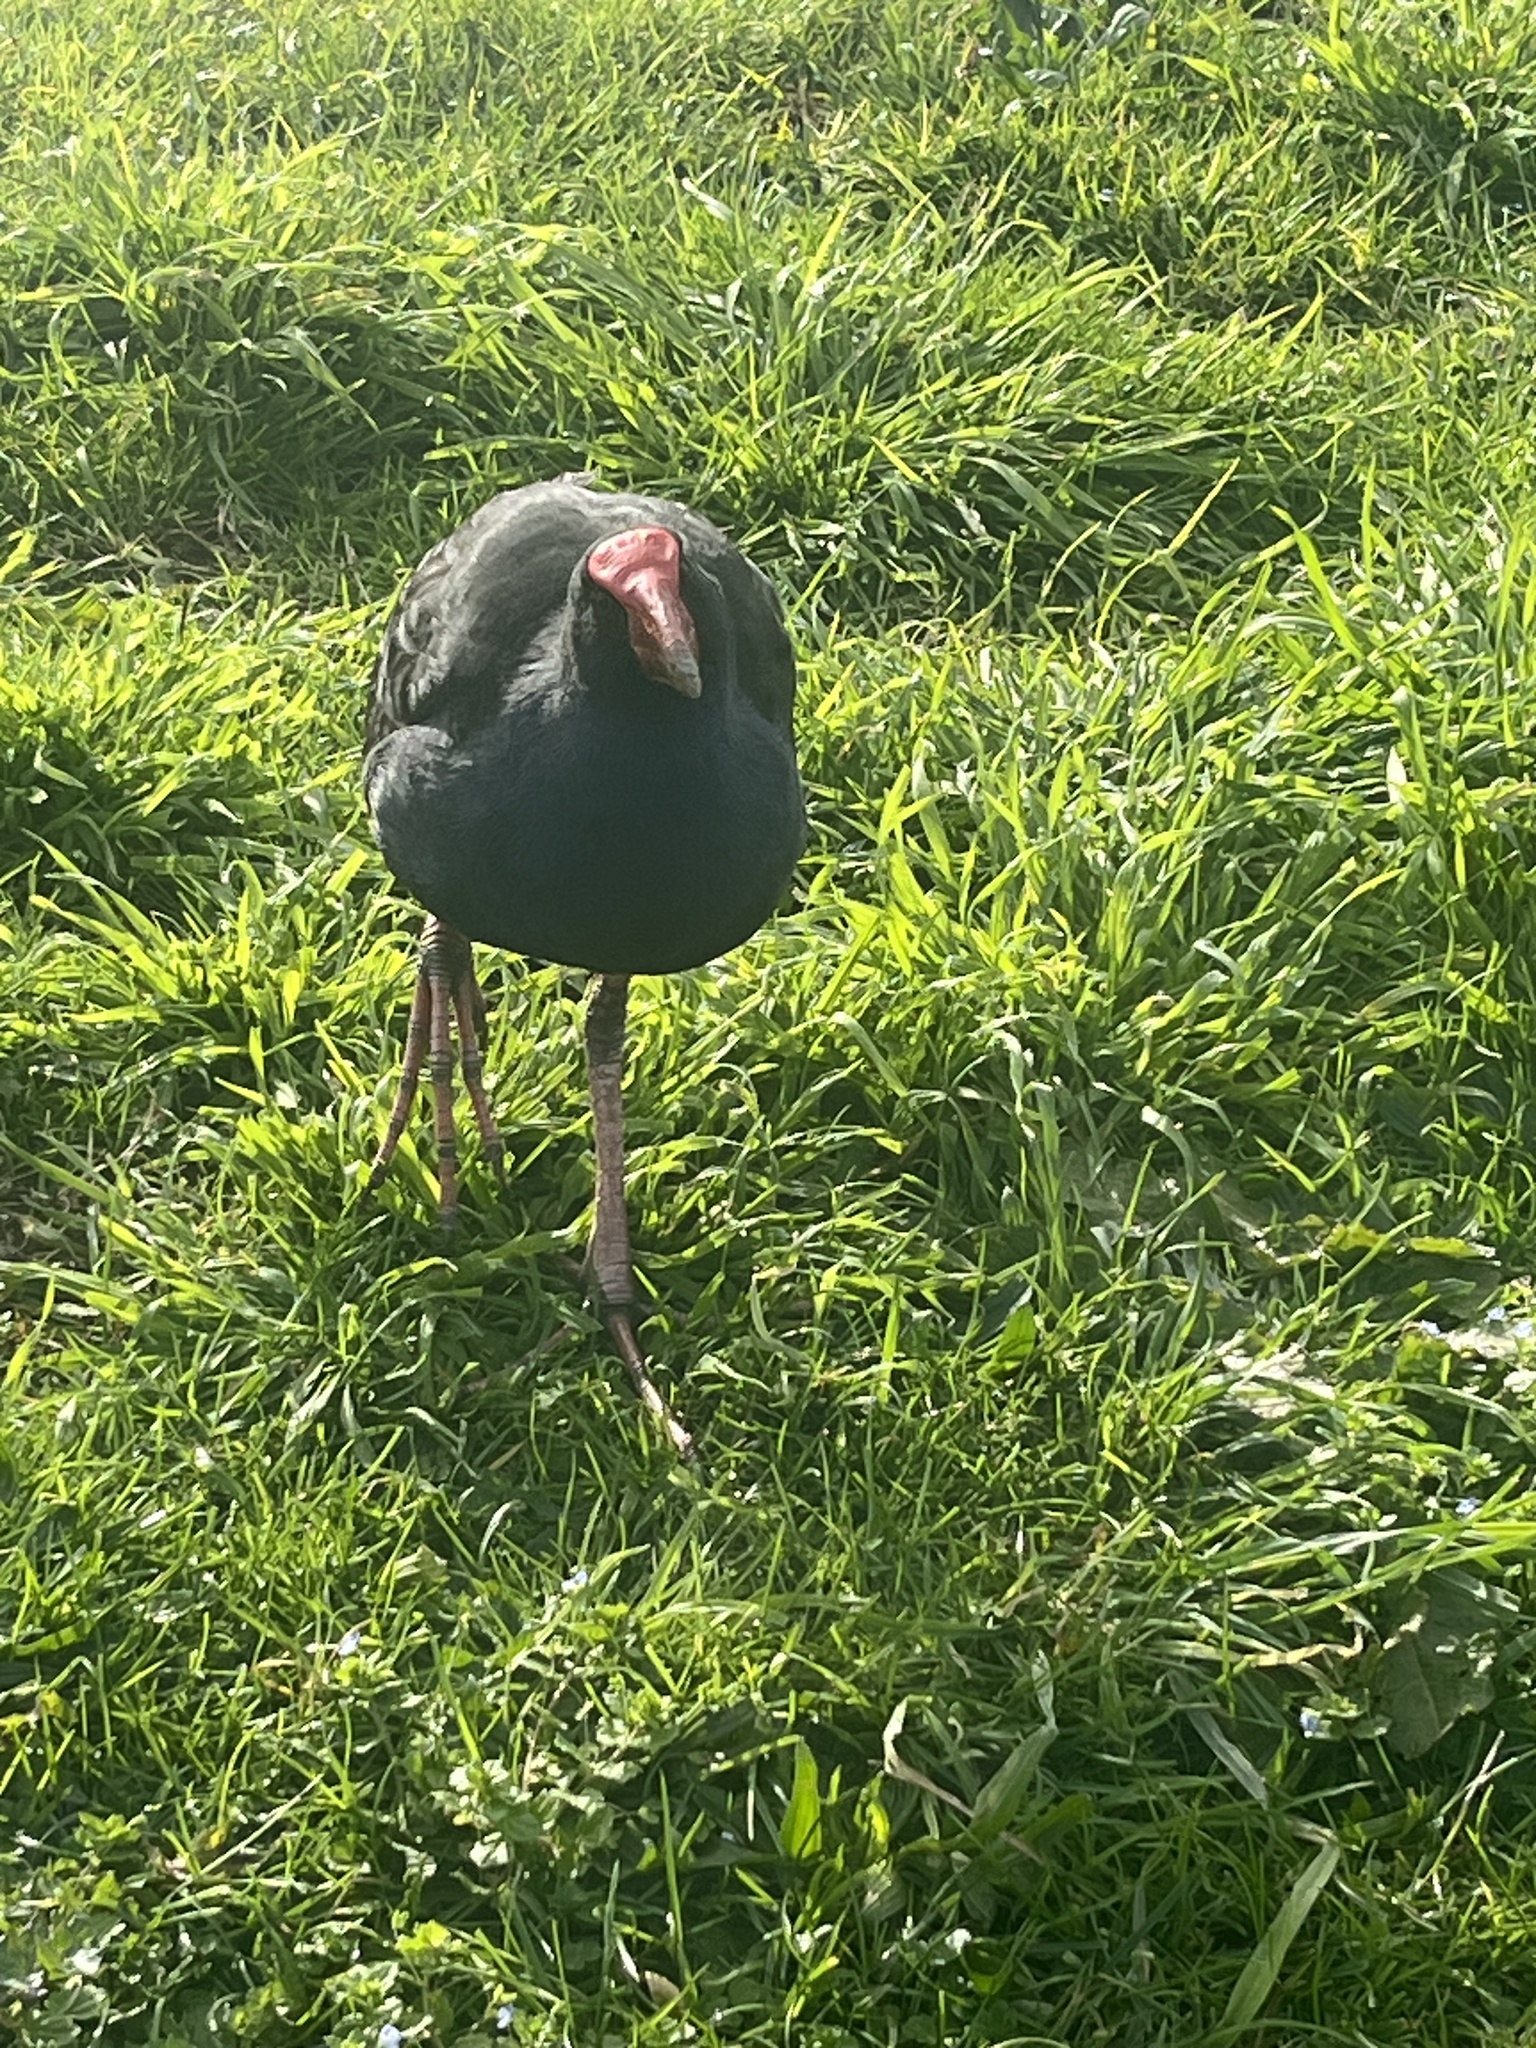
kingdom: Animalia
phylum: Chordata
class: Aves
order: Gruiformes
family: Rallidae
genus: Porphyrio
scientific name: Porphyrio melanotus
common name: Australasian swamphen
